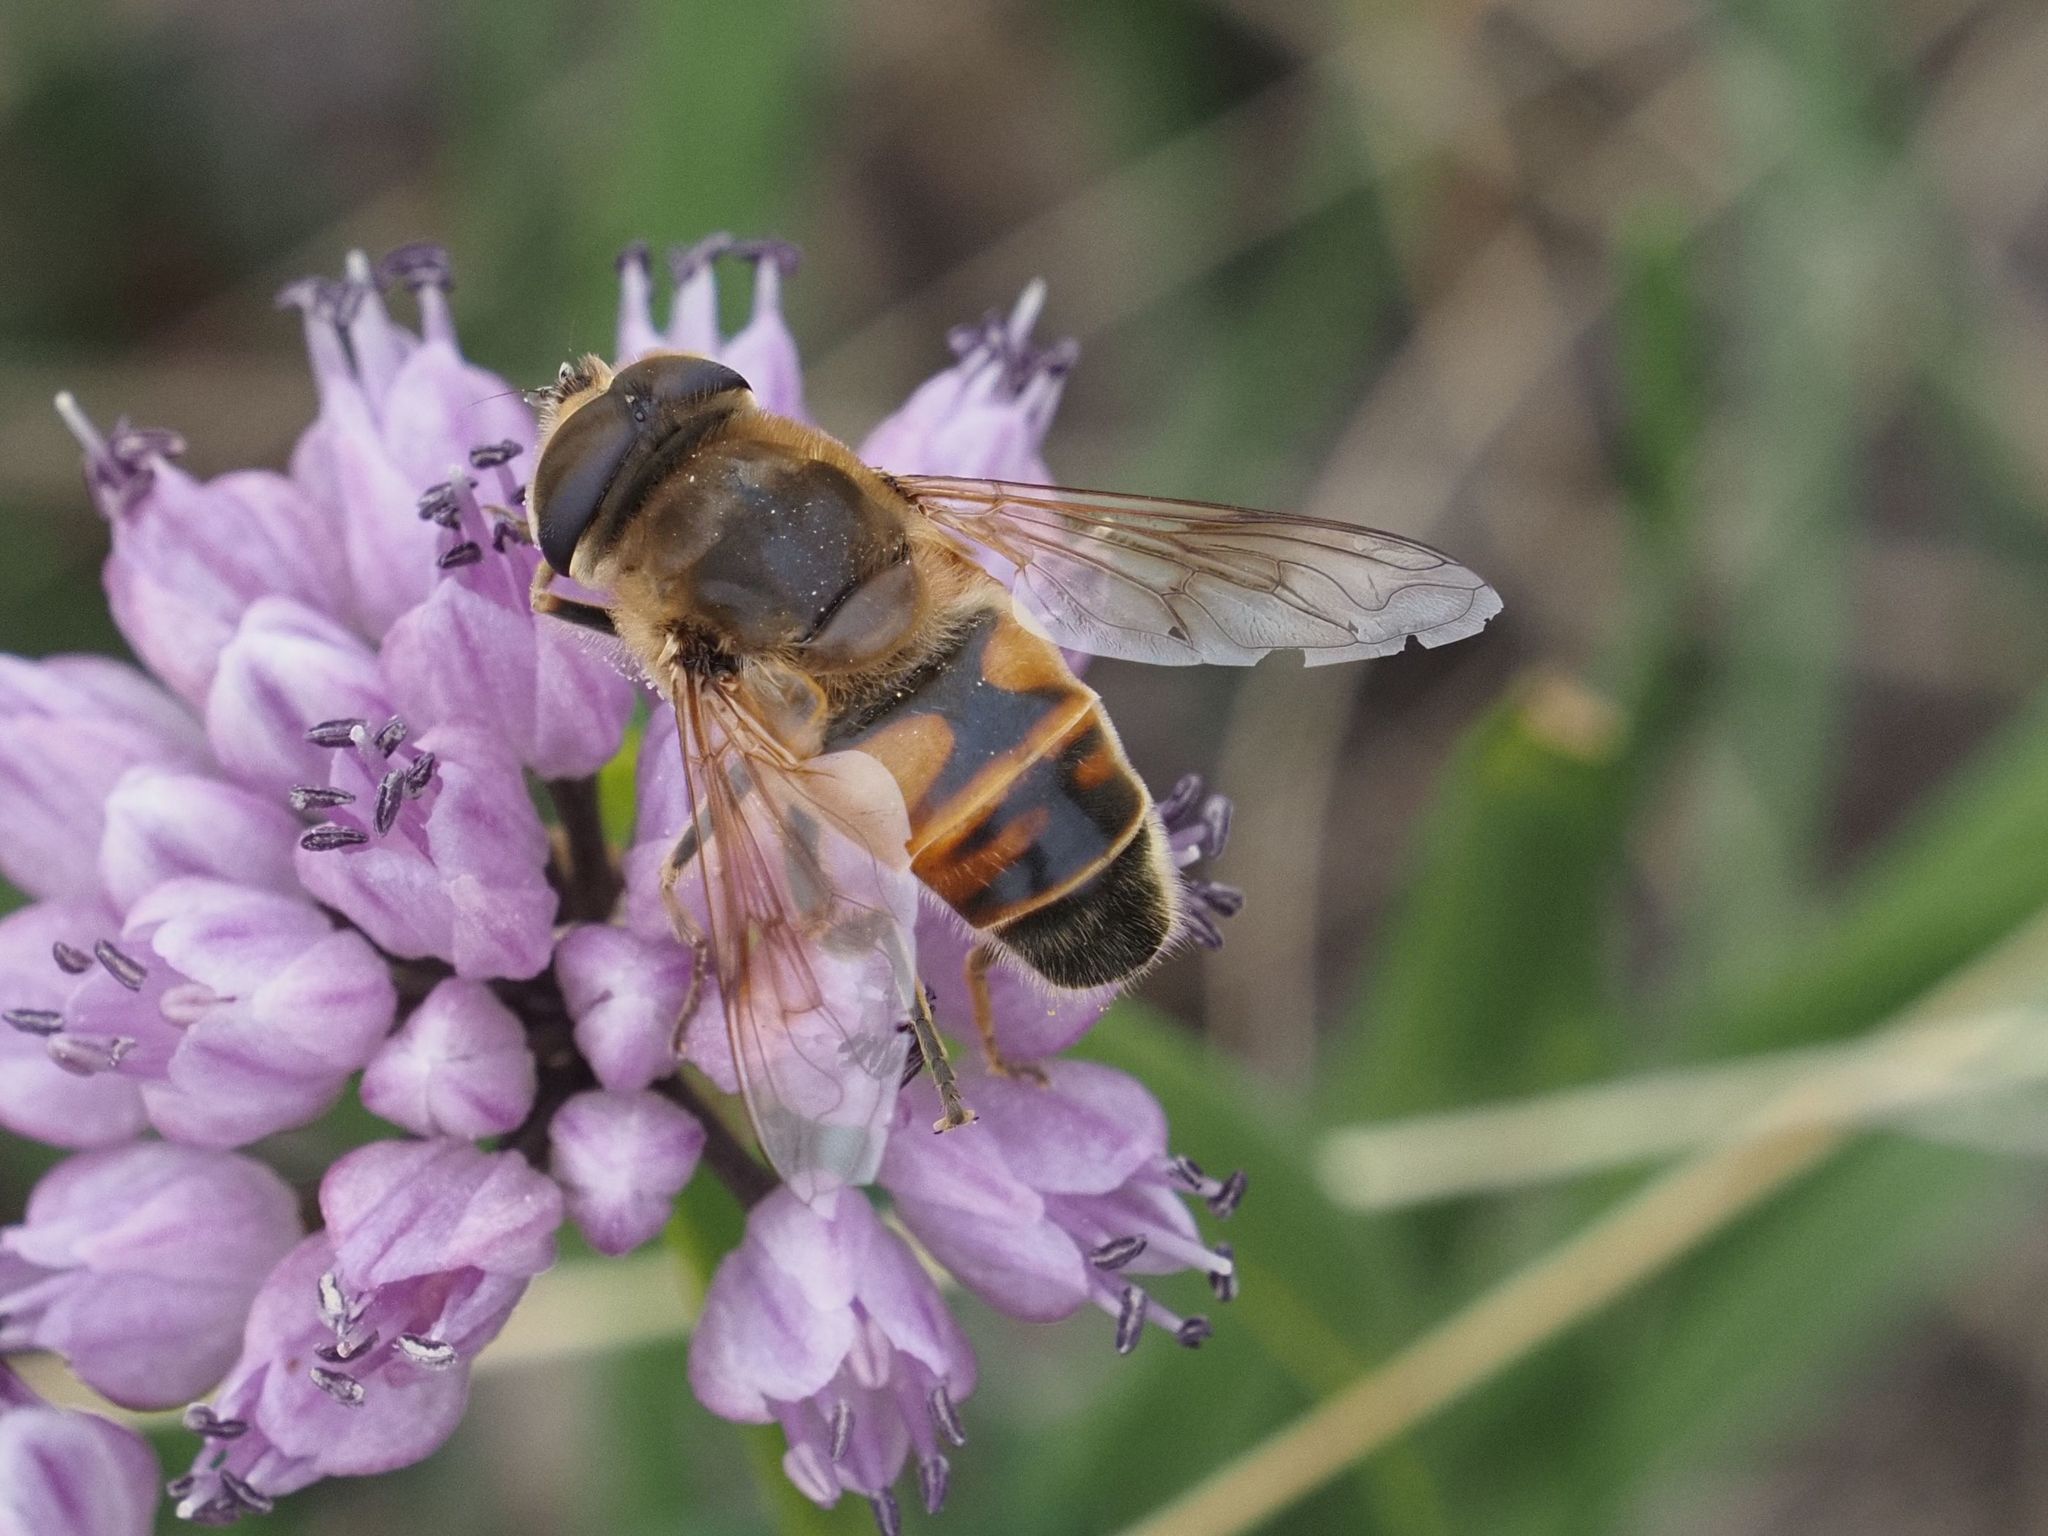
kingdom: Animalia
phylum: Arthropoda
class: Insecta
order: Diptera
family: Syrphidae
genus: Eristalis
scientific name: Eristalis tenax
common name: Drone fly
